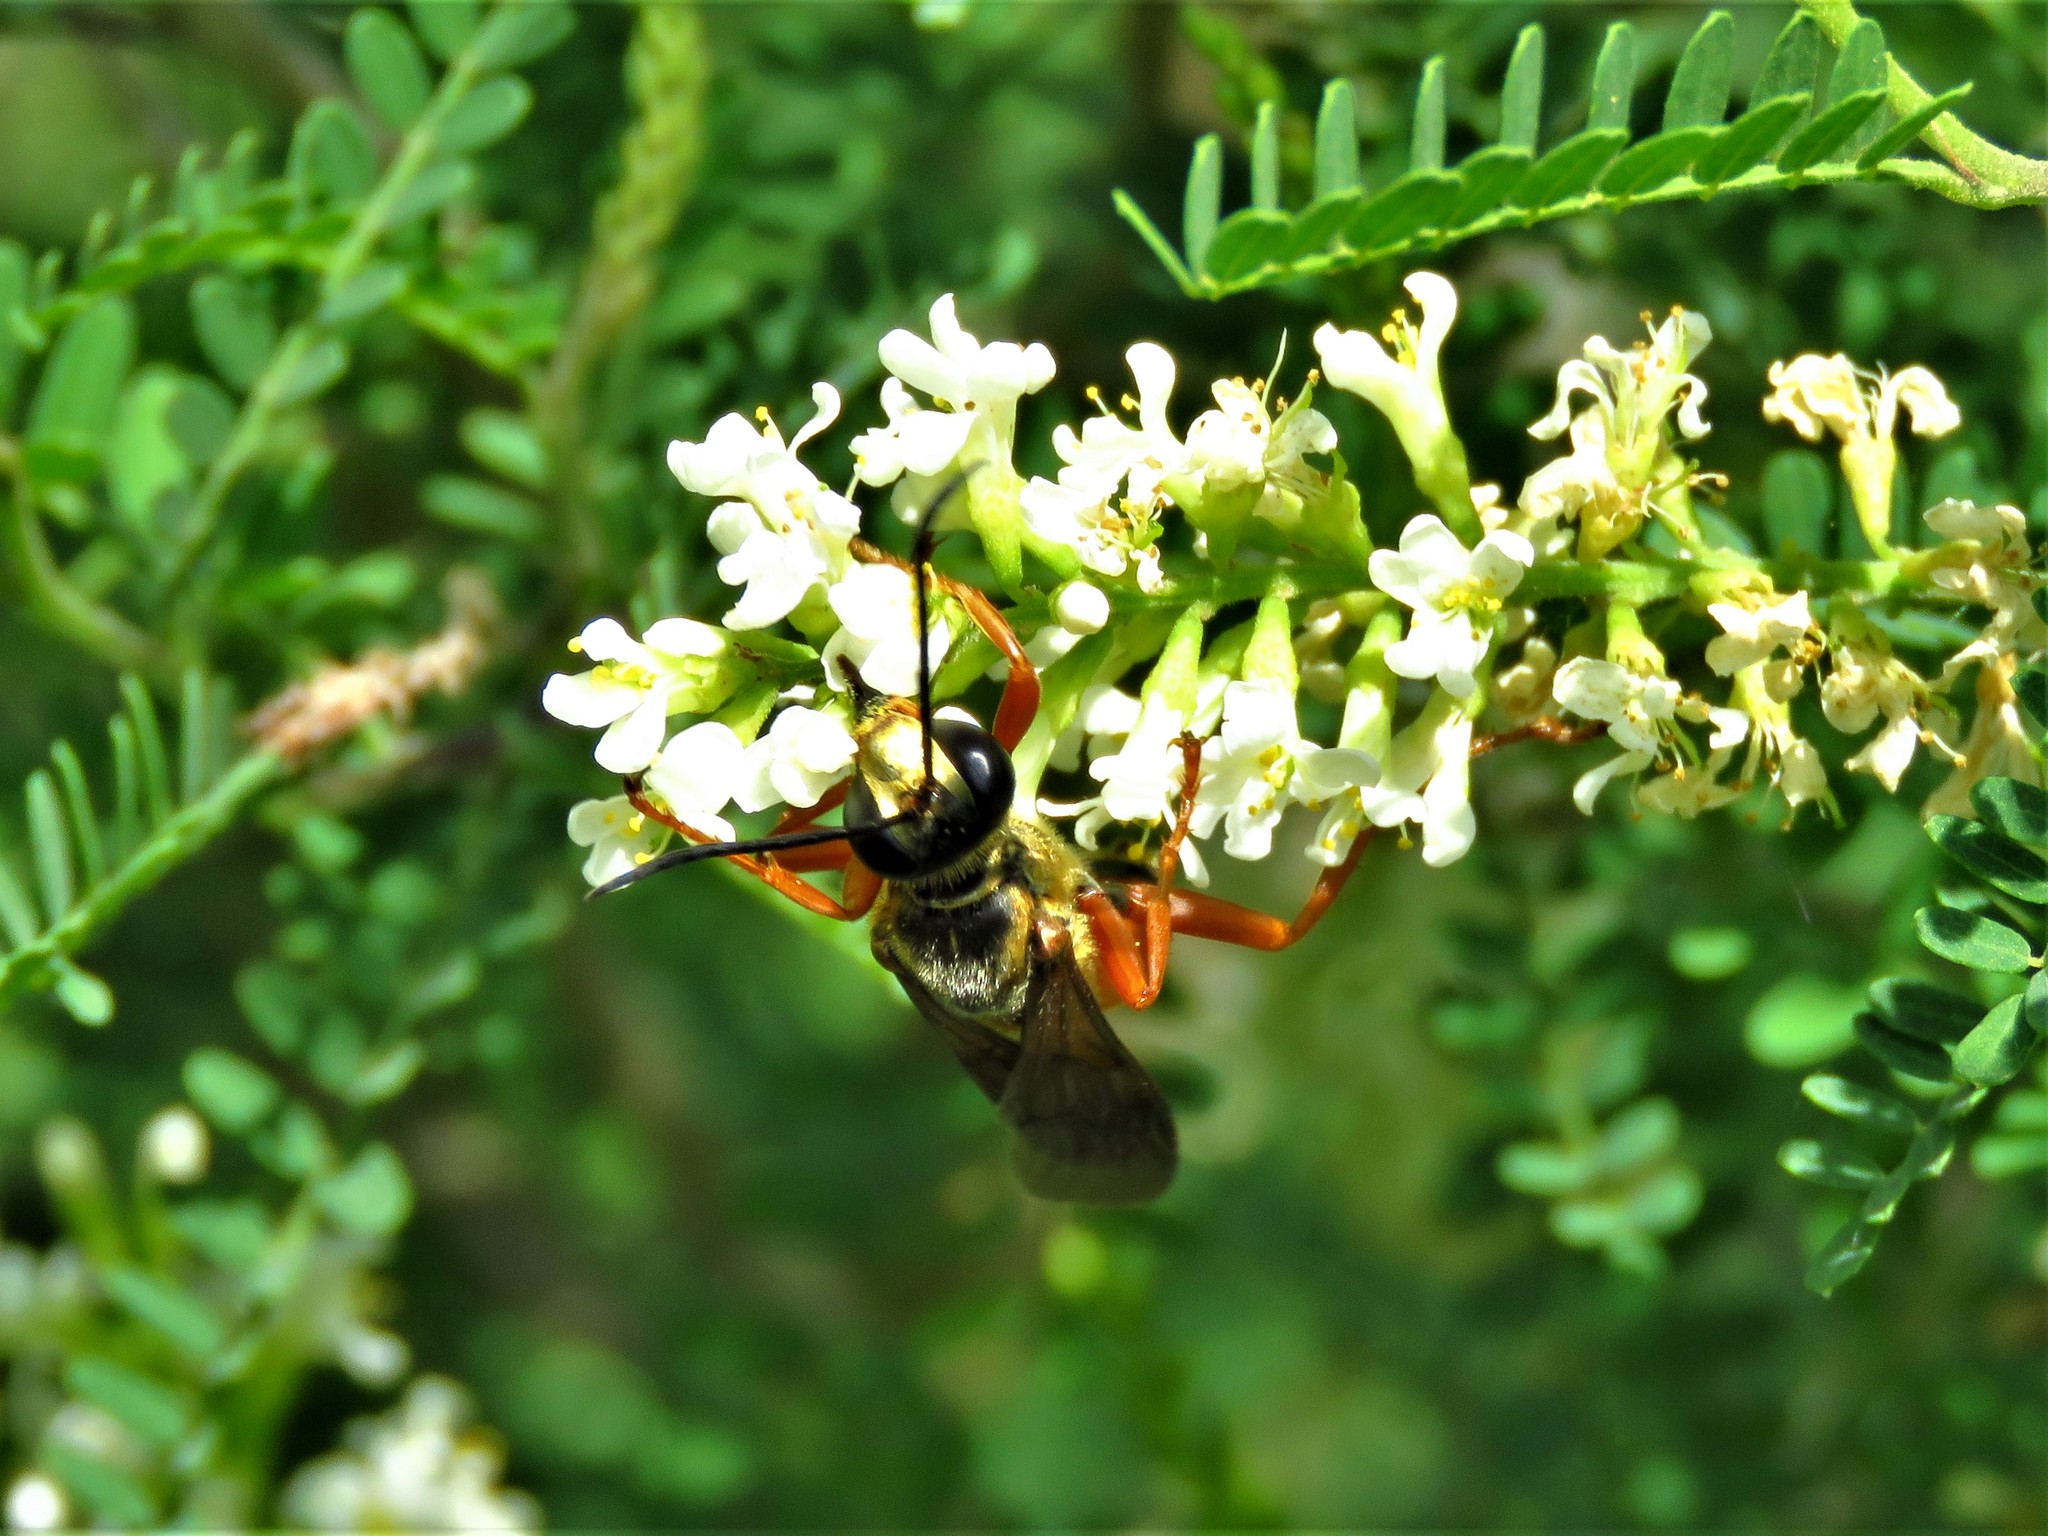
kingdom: Animalia
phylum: Arthropoda
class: Insecta
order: Hymenoptera
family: Sphecidae
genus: Sphex
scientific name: Sphex ichneumoneus
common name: Great golden digger wasp
